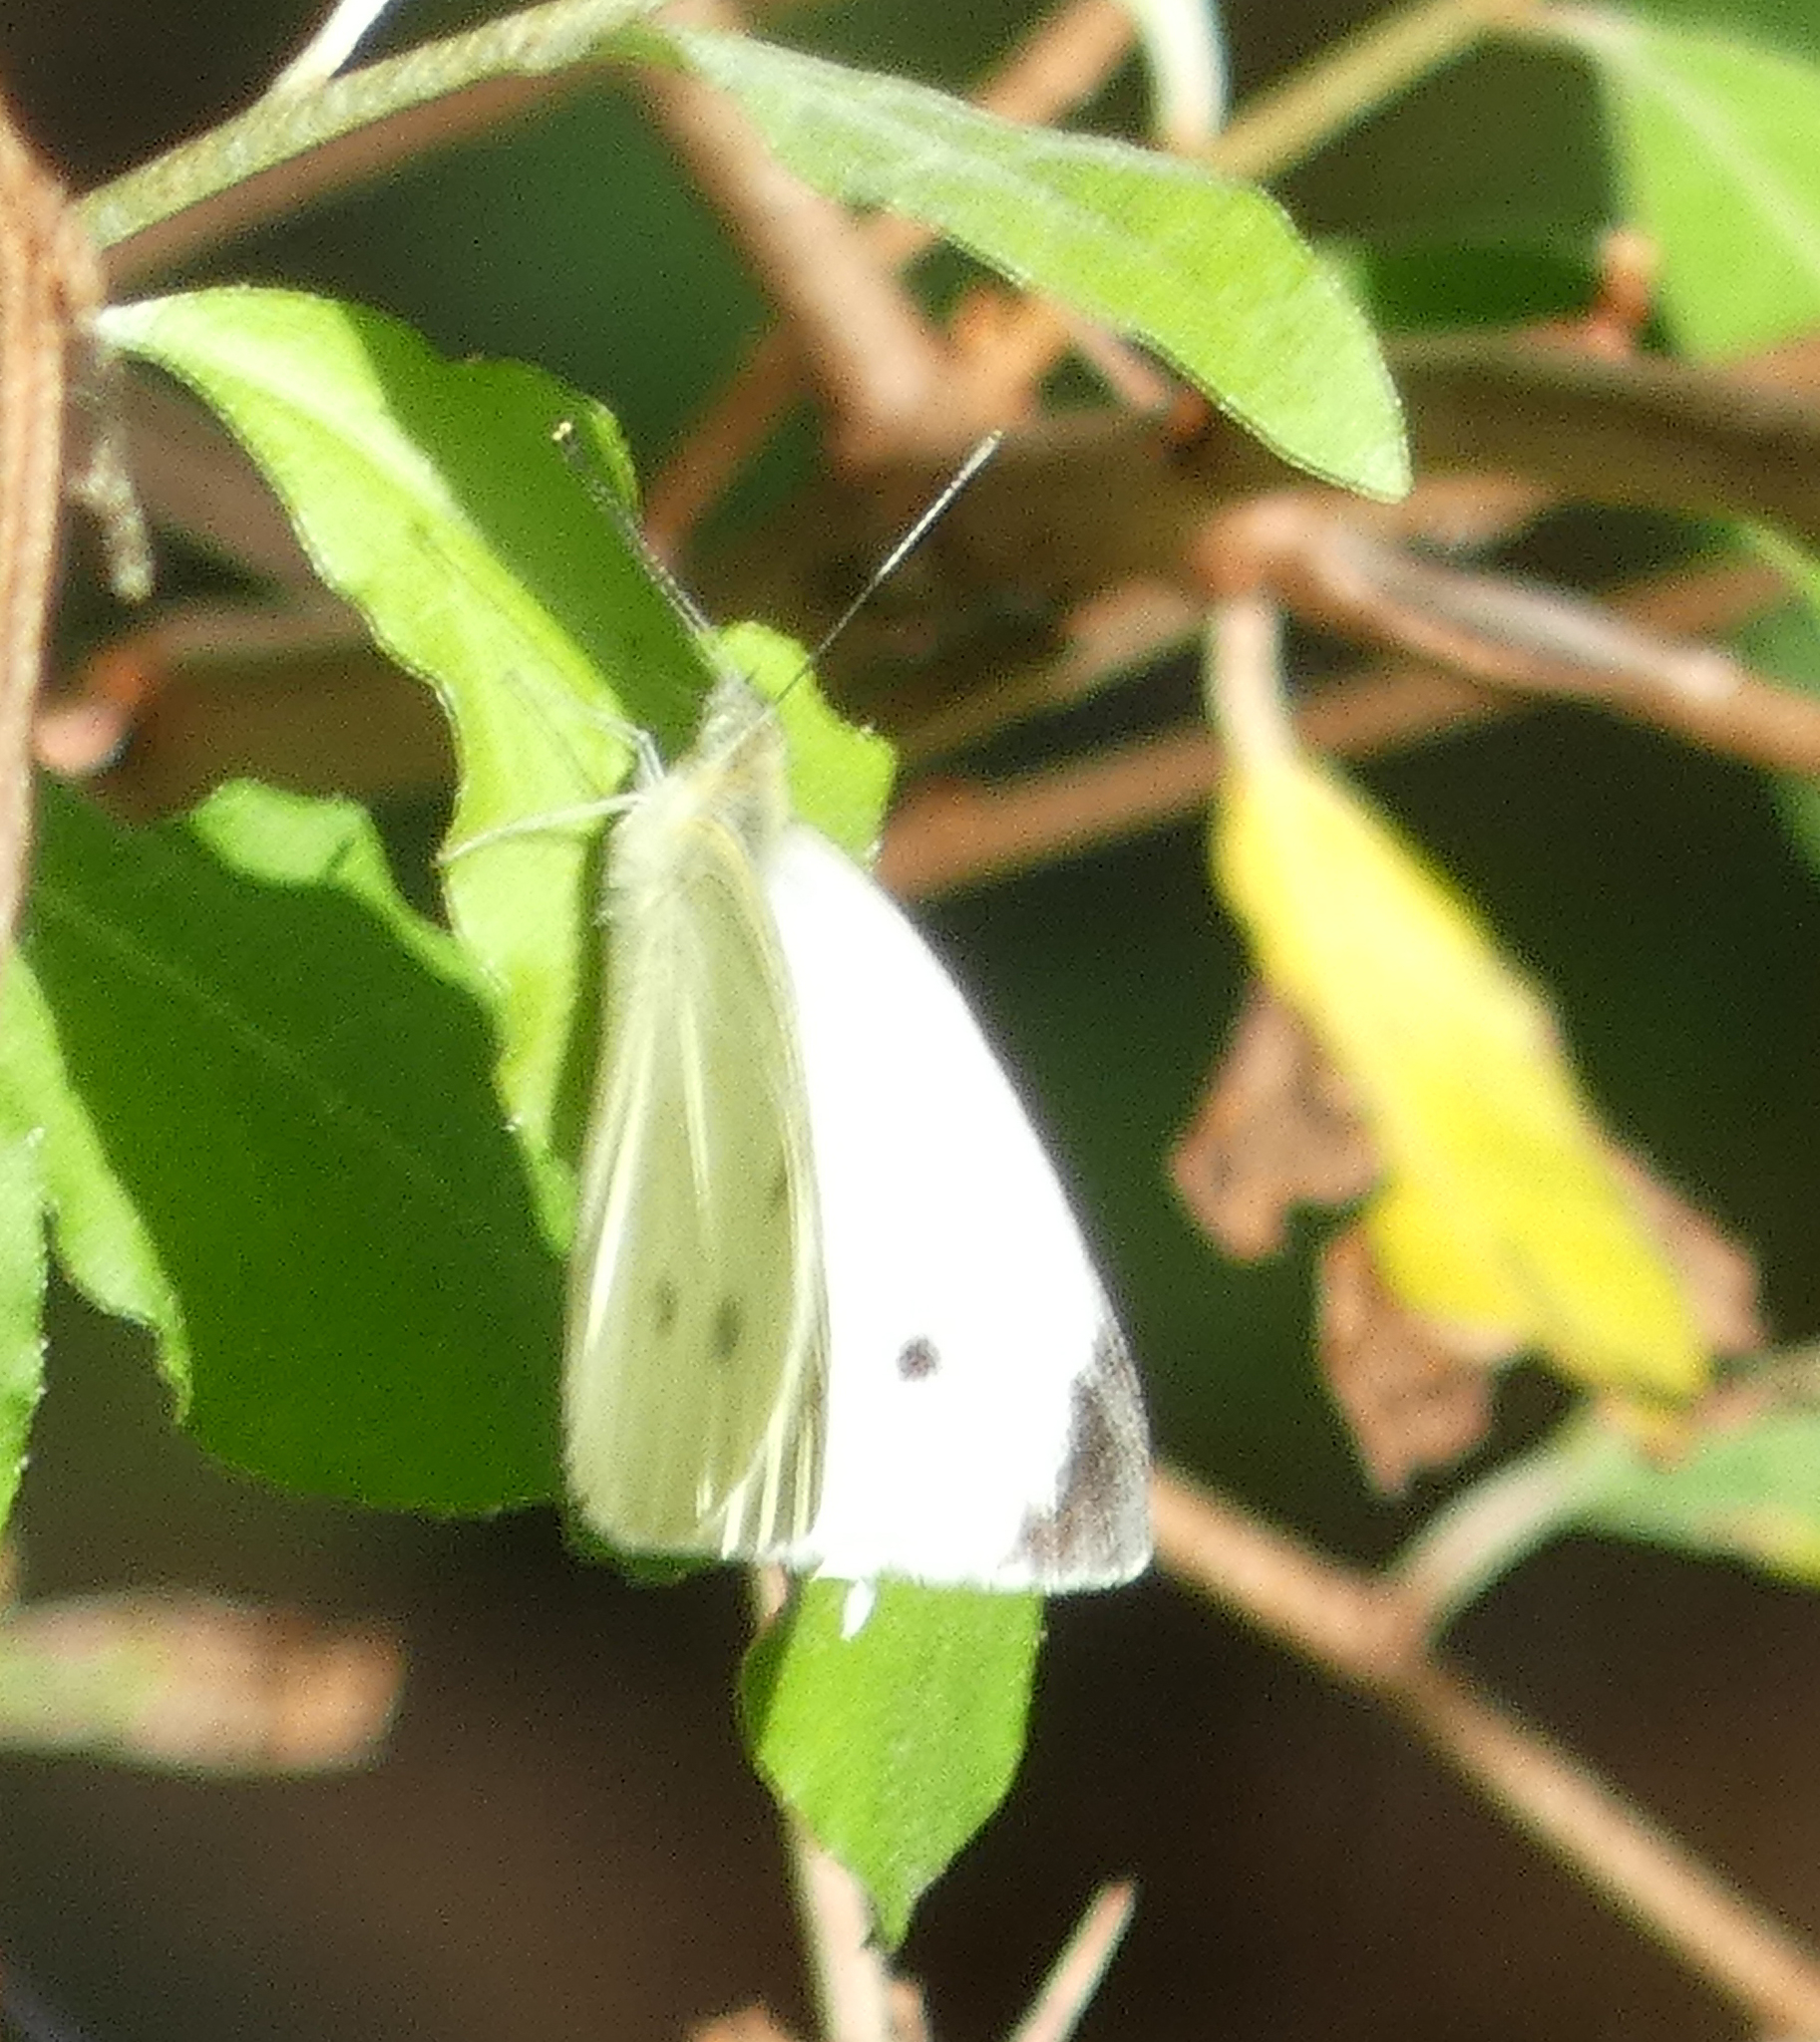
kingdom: Animalia
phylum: Arthropoda
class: Insecta
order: Lepidoptera
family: Pieridae
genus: Pieris
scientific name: Pieris rapae
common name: Small white
